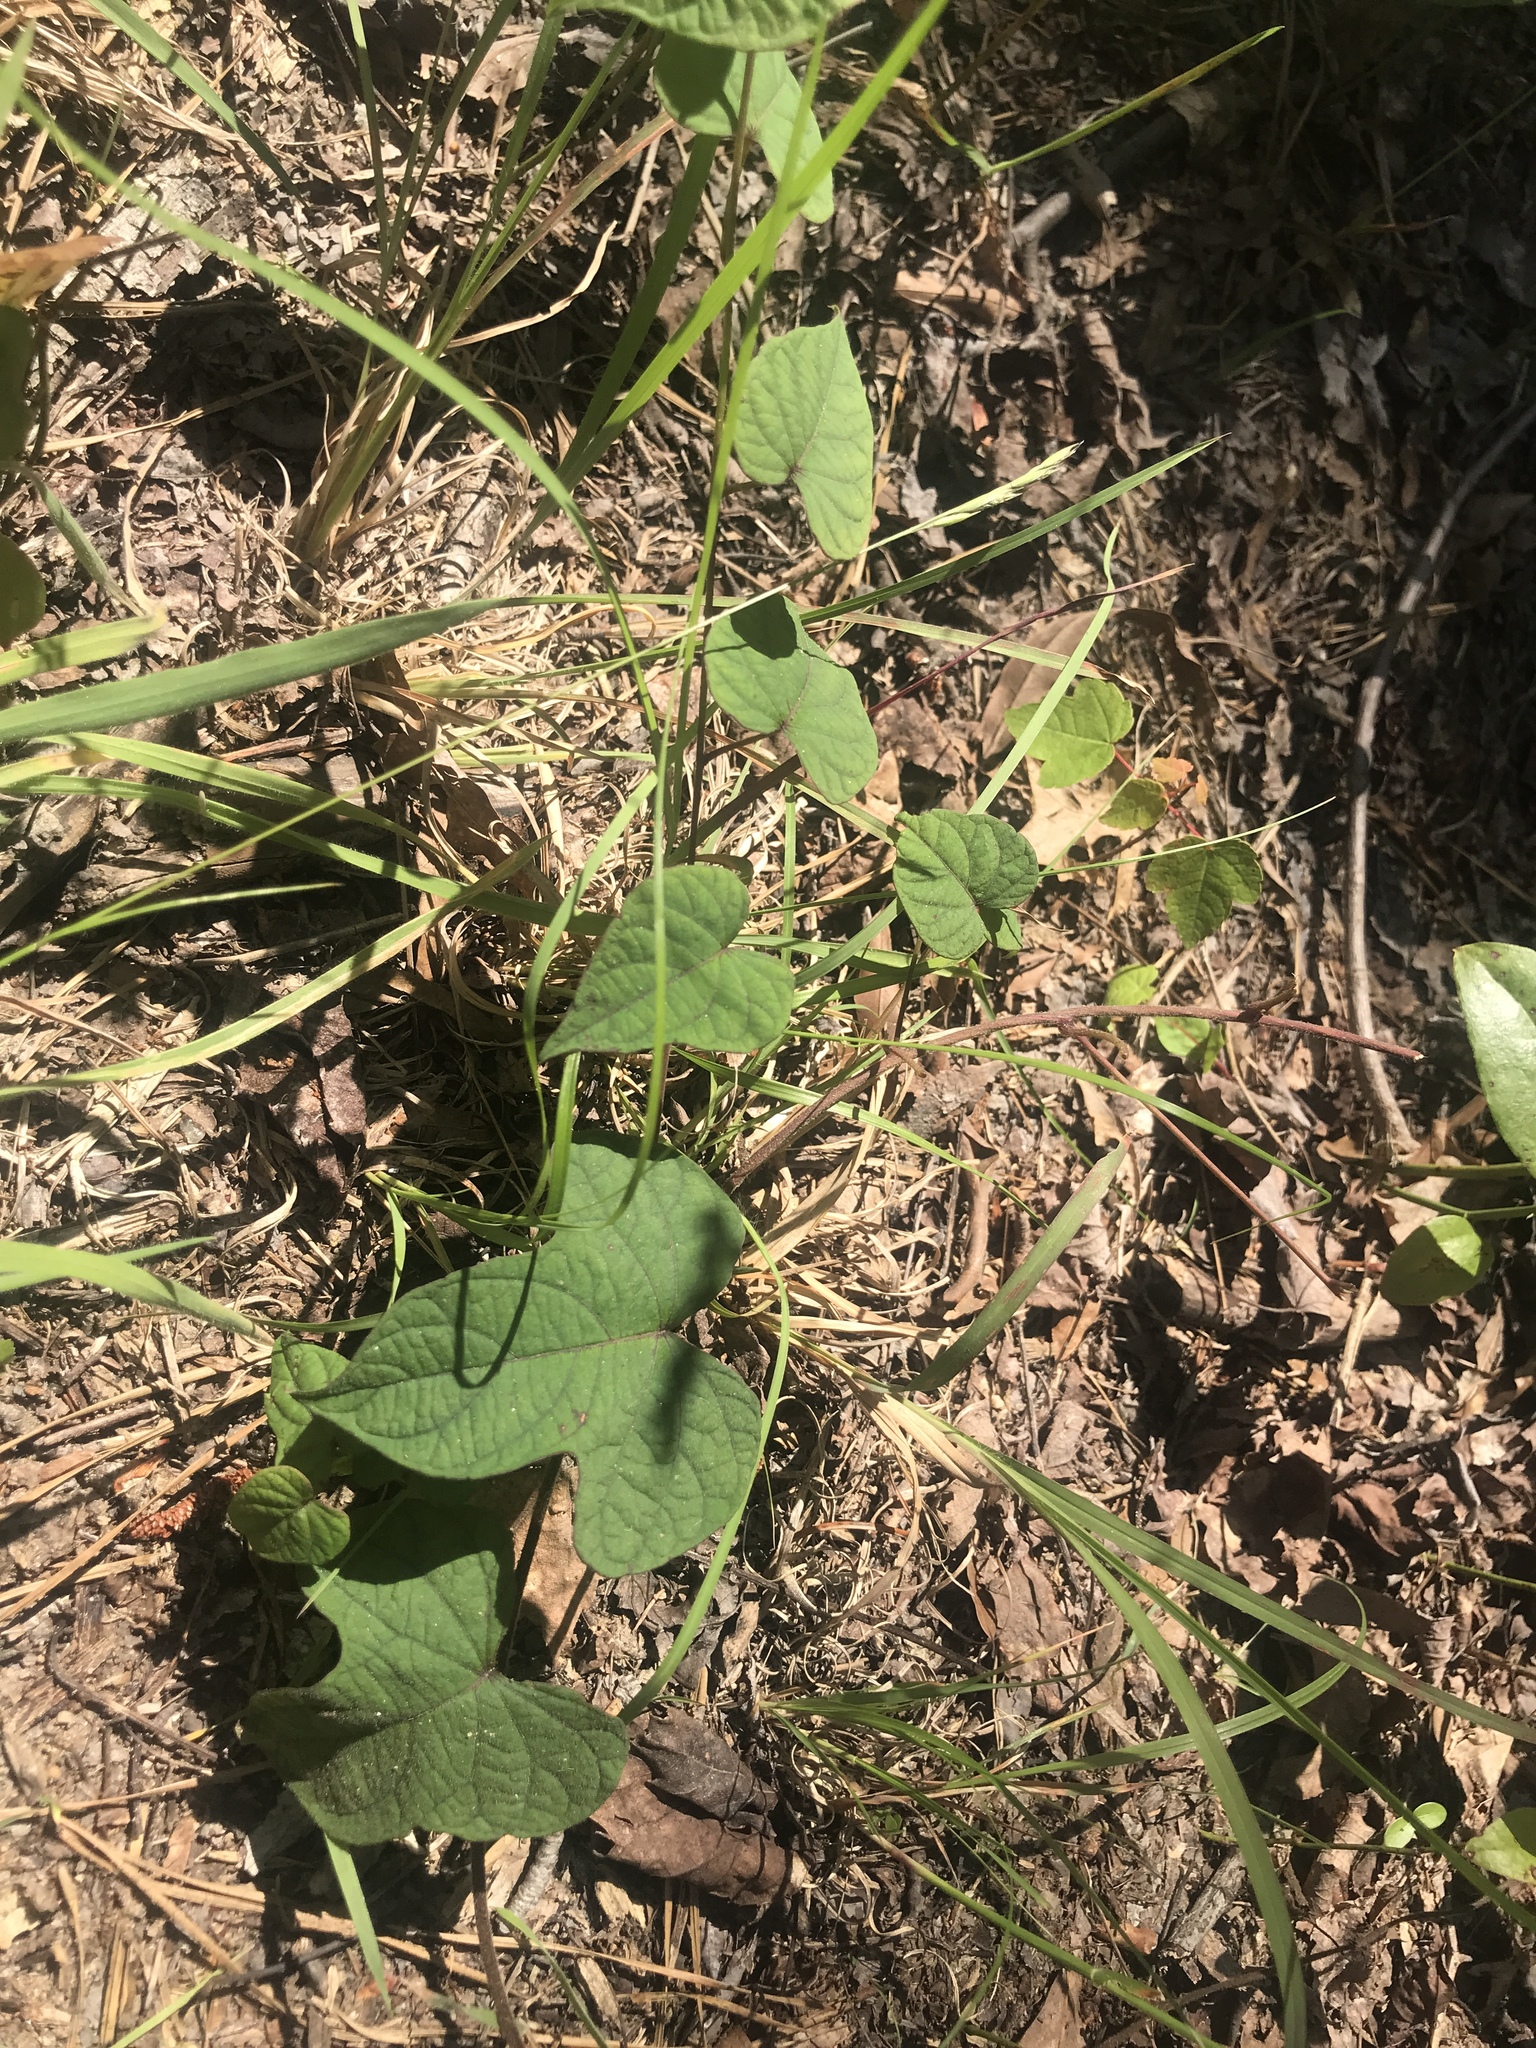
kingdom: Plantae
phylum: Tracheophyta
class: Magnoliopsida
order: Solanales
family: Convolvulaceae
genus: Ipomoea
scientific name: Ipomoea pandurata
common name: Man-of-the-earth
